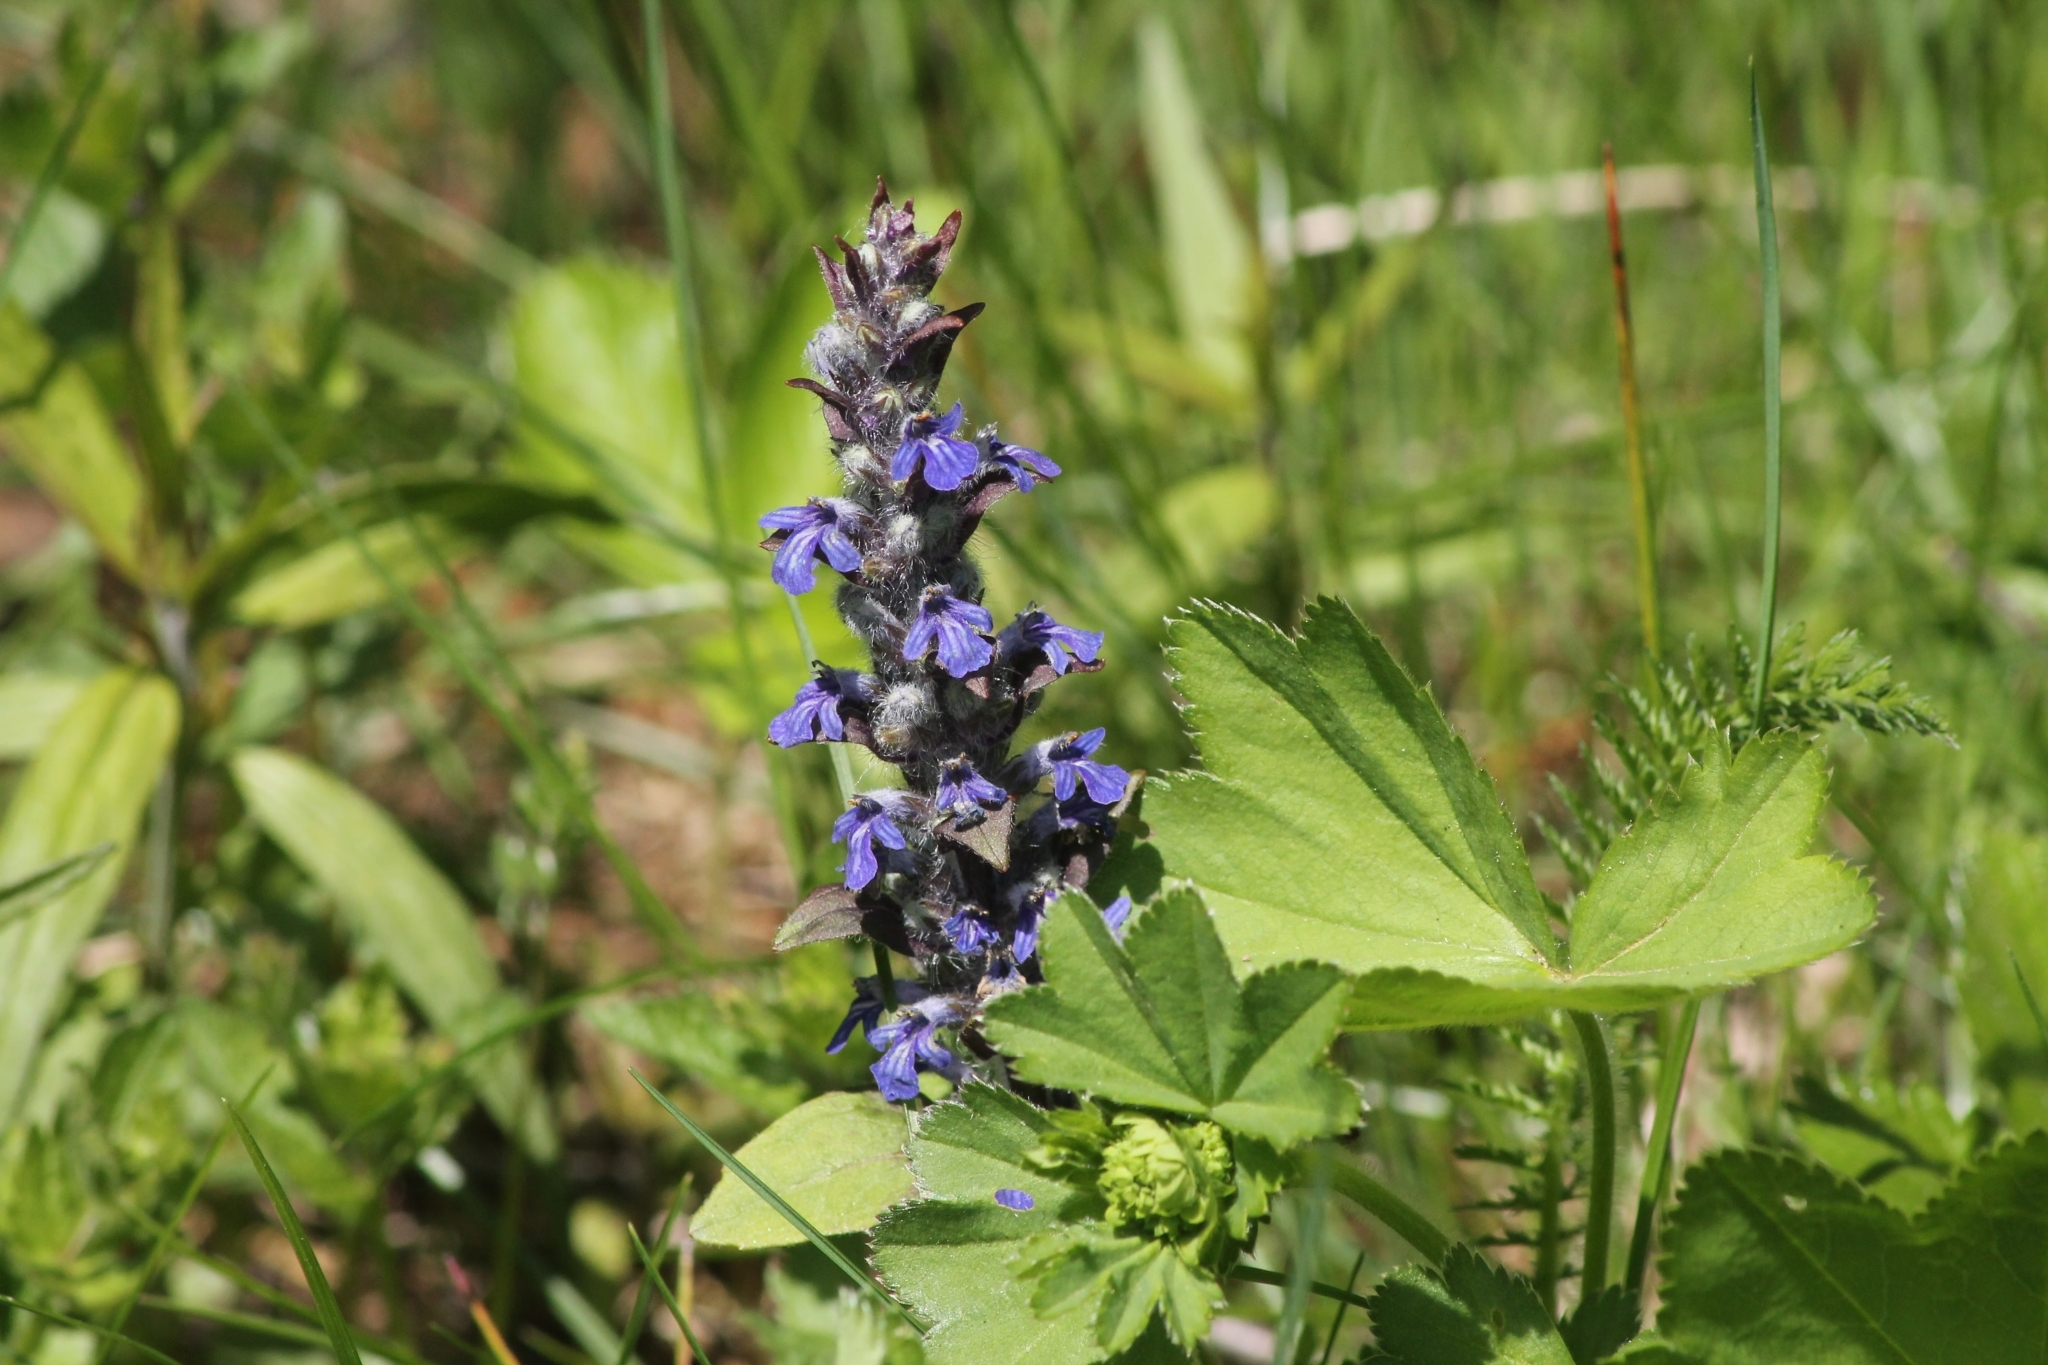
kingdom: Plantae
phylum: Tracheophyta
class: Magnoliopsida
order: Lamiales
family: Lamiaceae
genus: Ajuga
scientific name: Ajuga reptans
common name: Bugle
